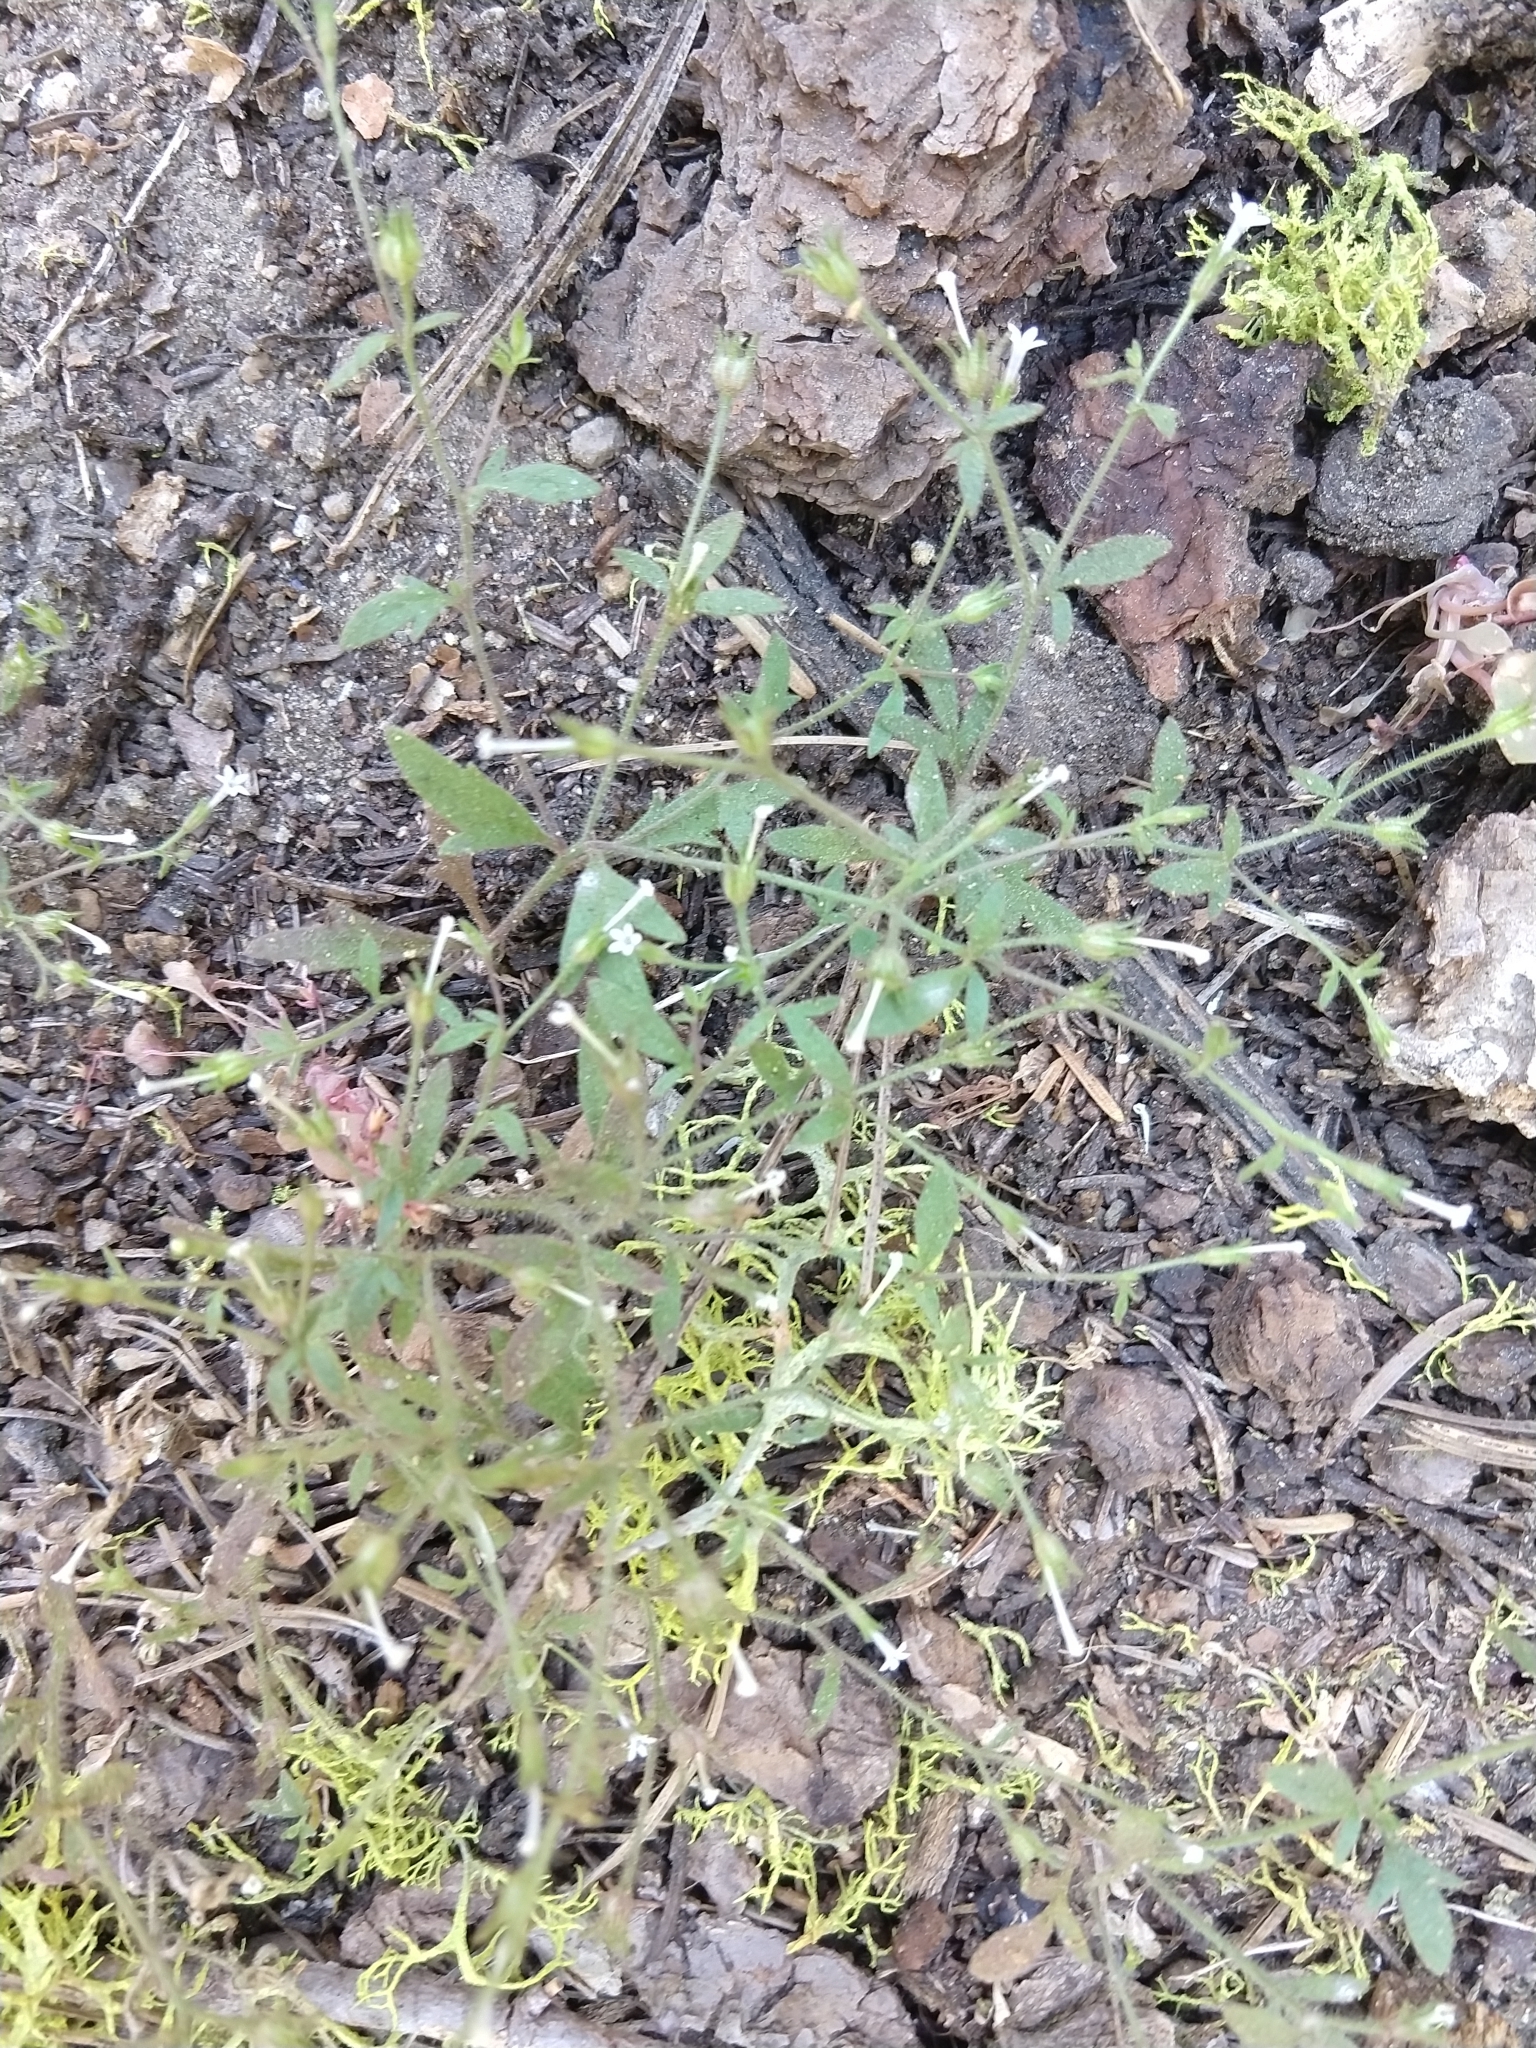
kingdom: Plantae
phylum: Tracheophyta
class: Magnoliopsida
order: Ericales
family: Polemoniaceae
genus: Allophyllum
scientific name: Allophyllum integrifolium
